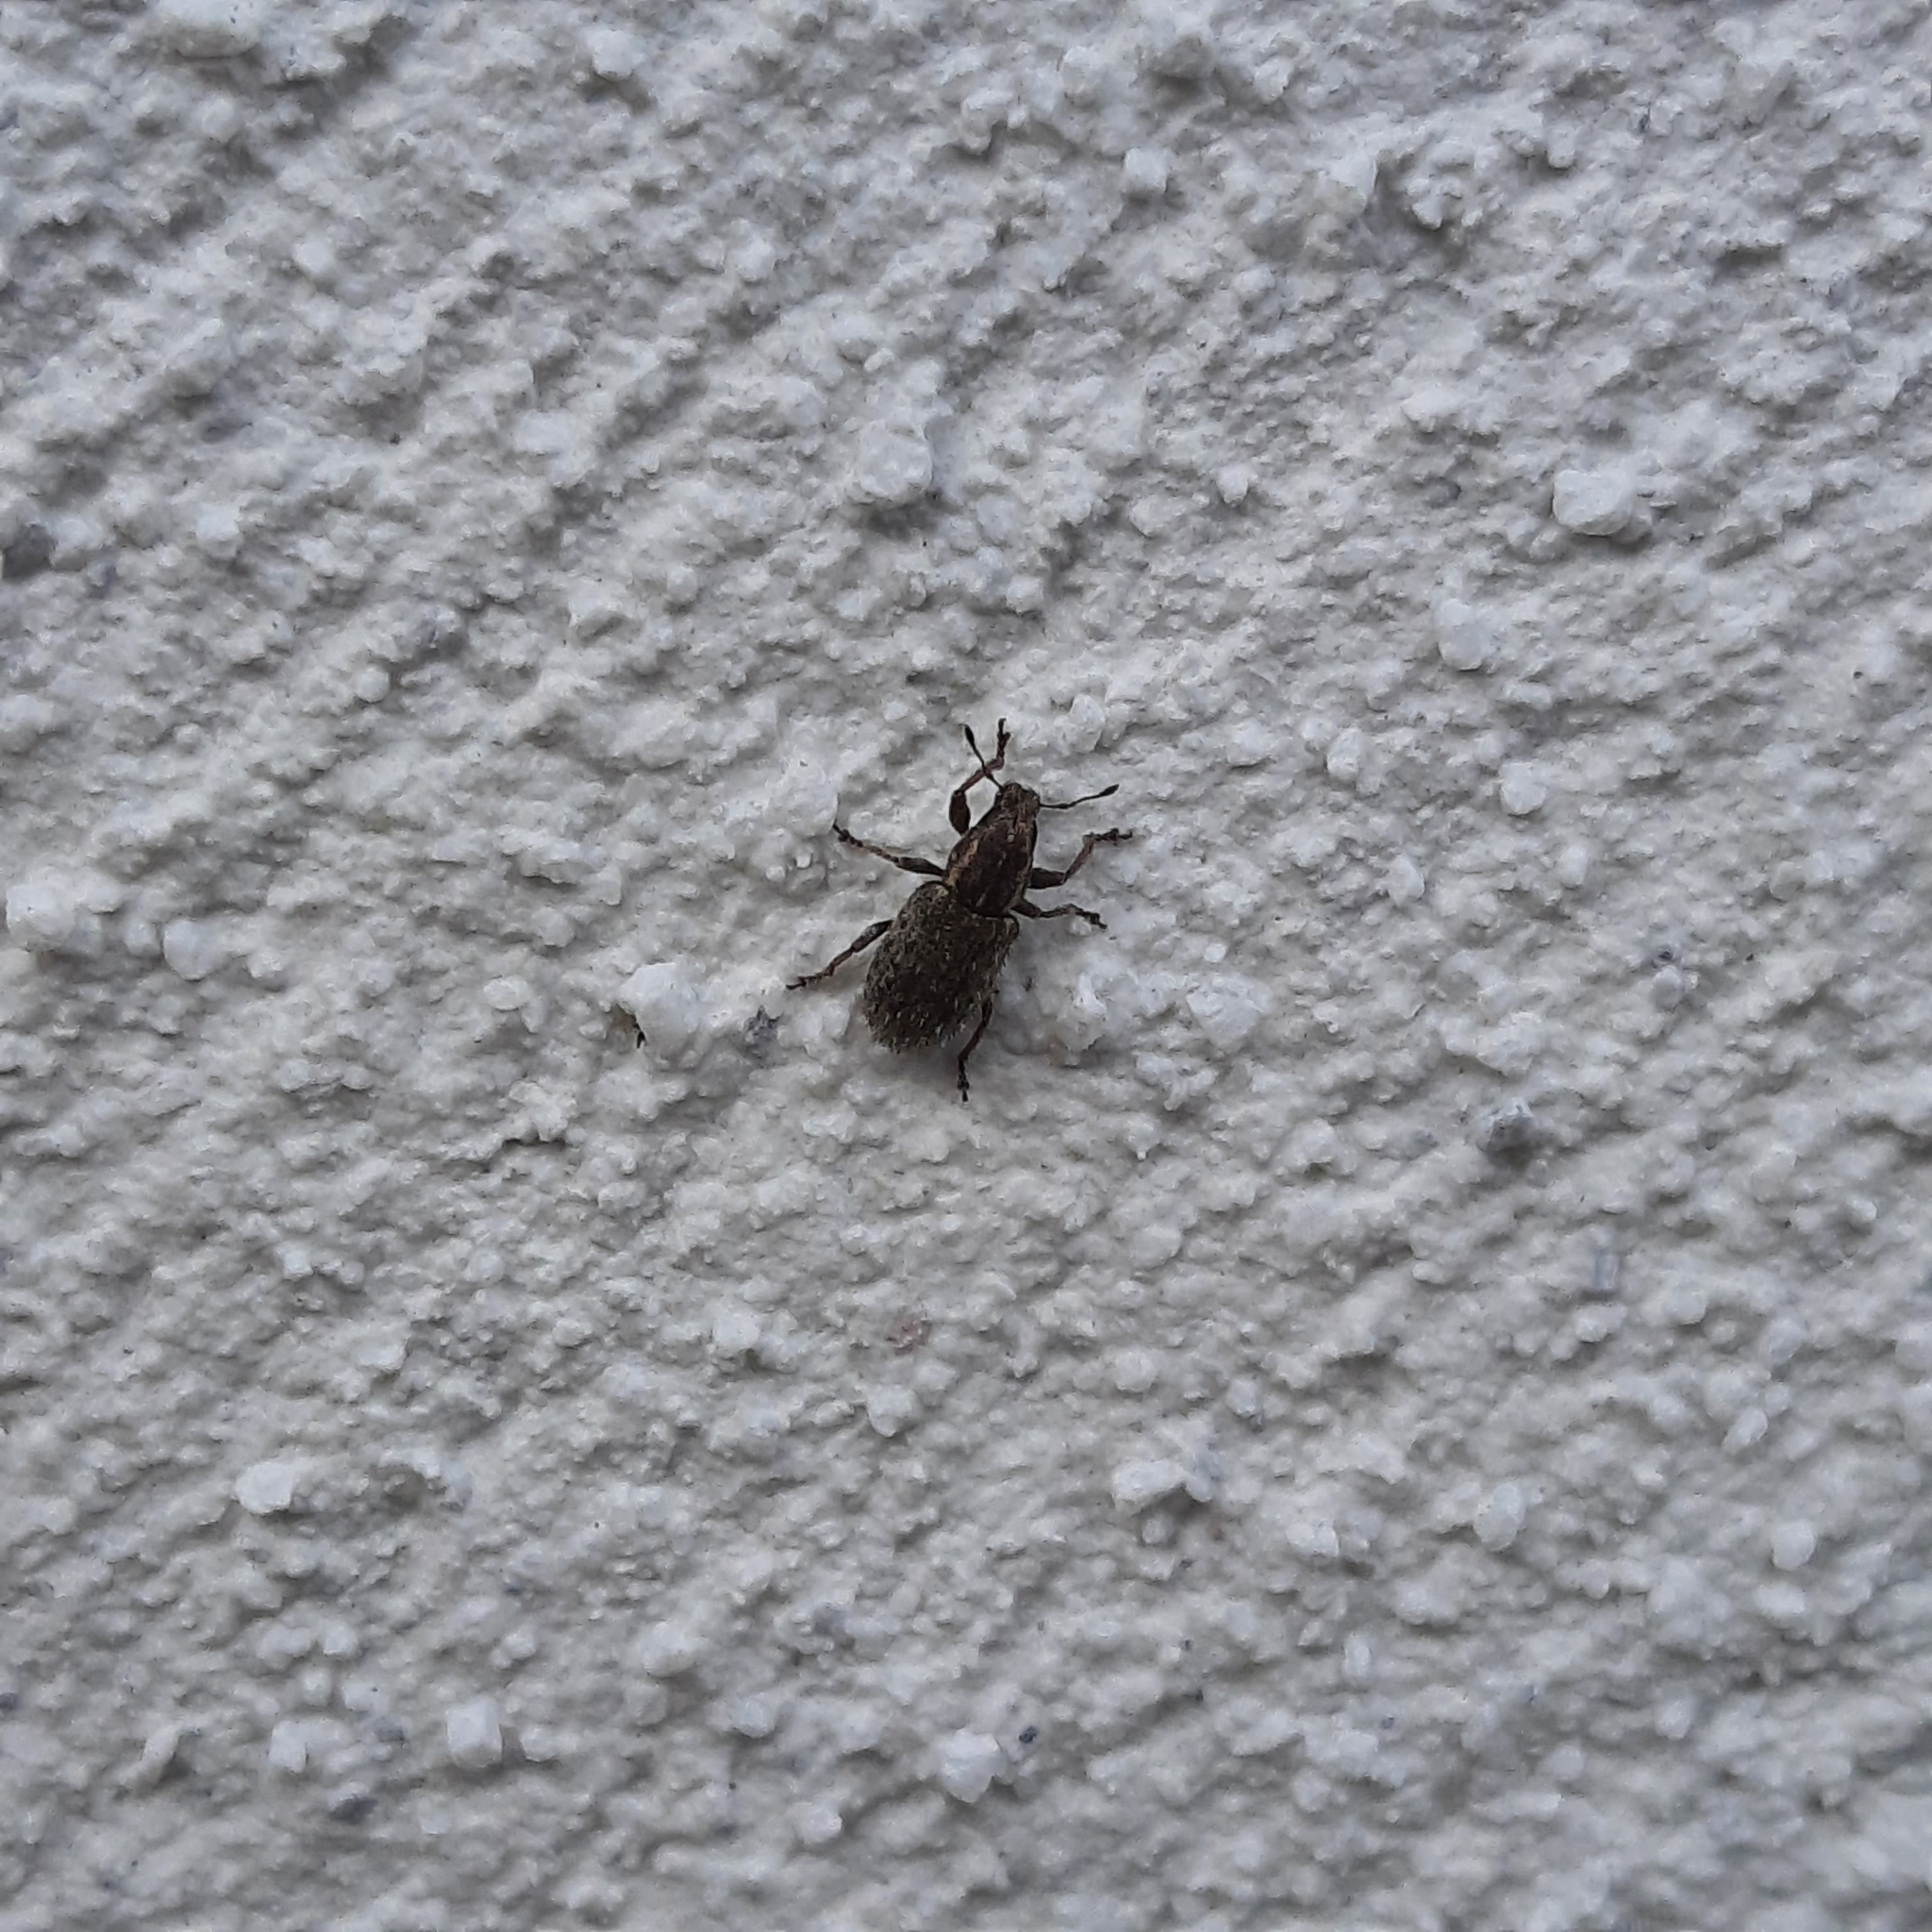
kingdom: Animalia
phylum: Arthropoda
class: Insecta
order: Coleoptera
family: Curculionidae
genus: Sitona
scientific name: Sitona hispidulus
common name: Clover weevil
